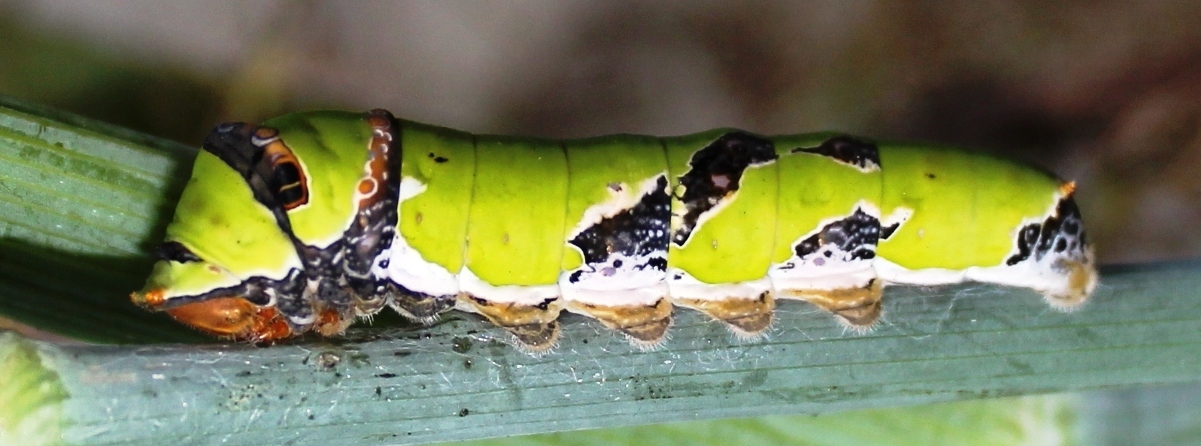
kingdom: Animalia
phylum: Arthropoda
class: Insecta
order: Lepidoptera
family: Papilionidae
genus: Papilio
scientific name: Papilio demodocus
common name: Christmas butterfly
